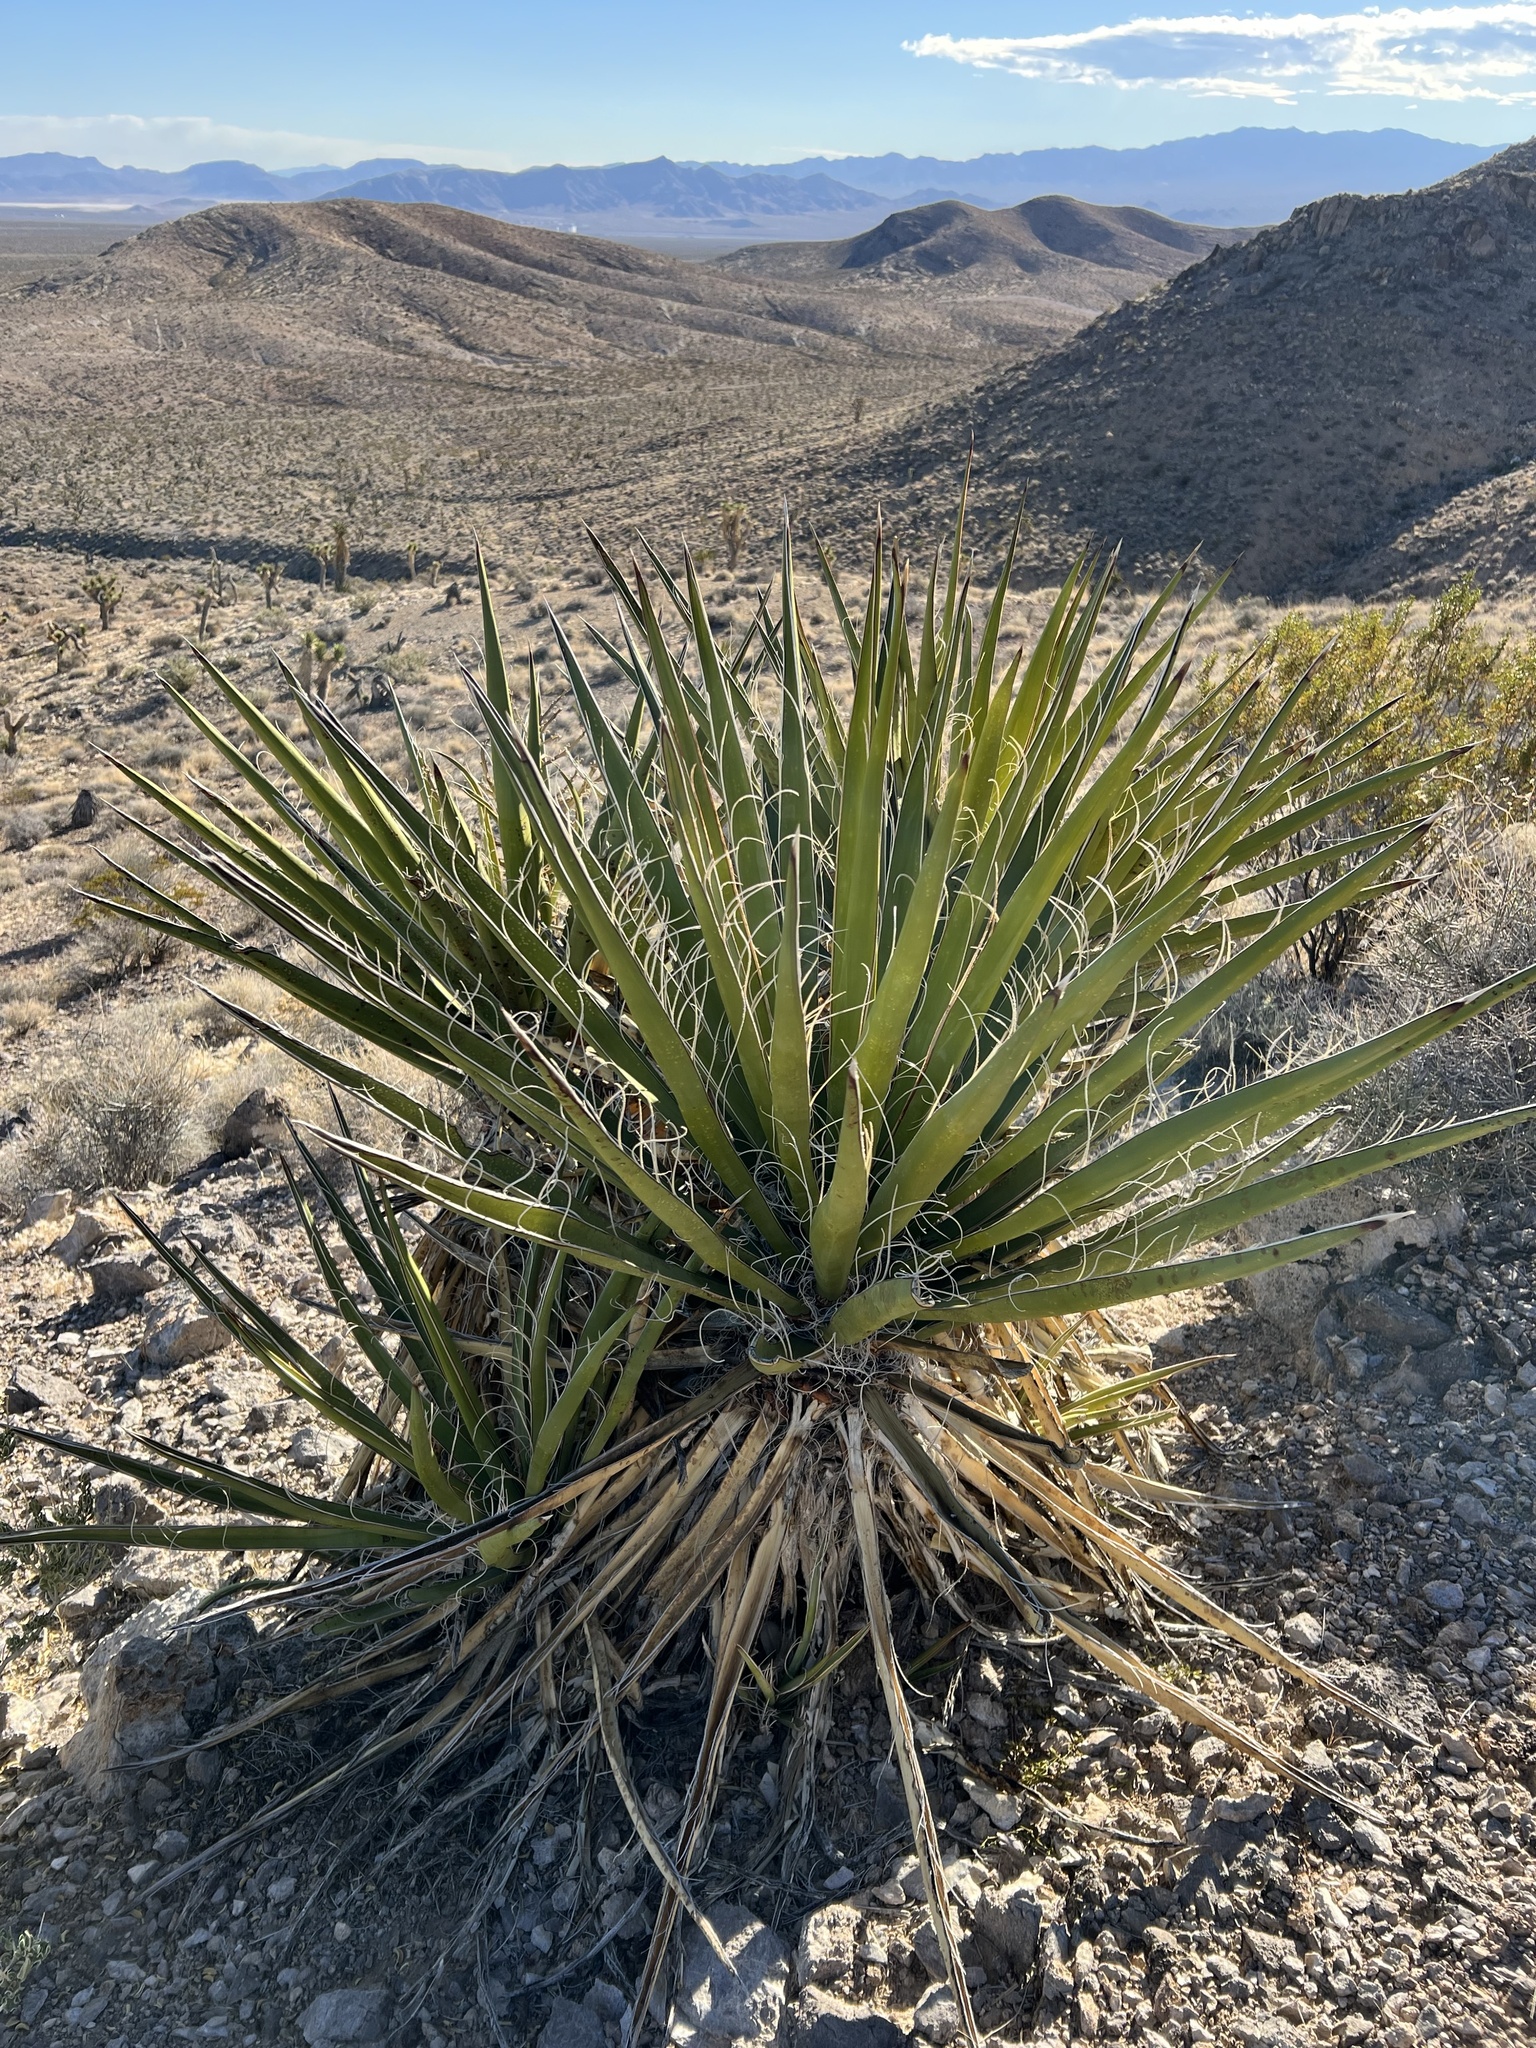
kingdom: Plantae
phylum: Tracheophyta
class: Liliopsida
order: Asparagales
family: Asparagaceae
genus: Yucca
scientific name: Yucca schidigera
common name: Mojave yucca
